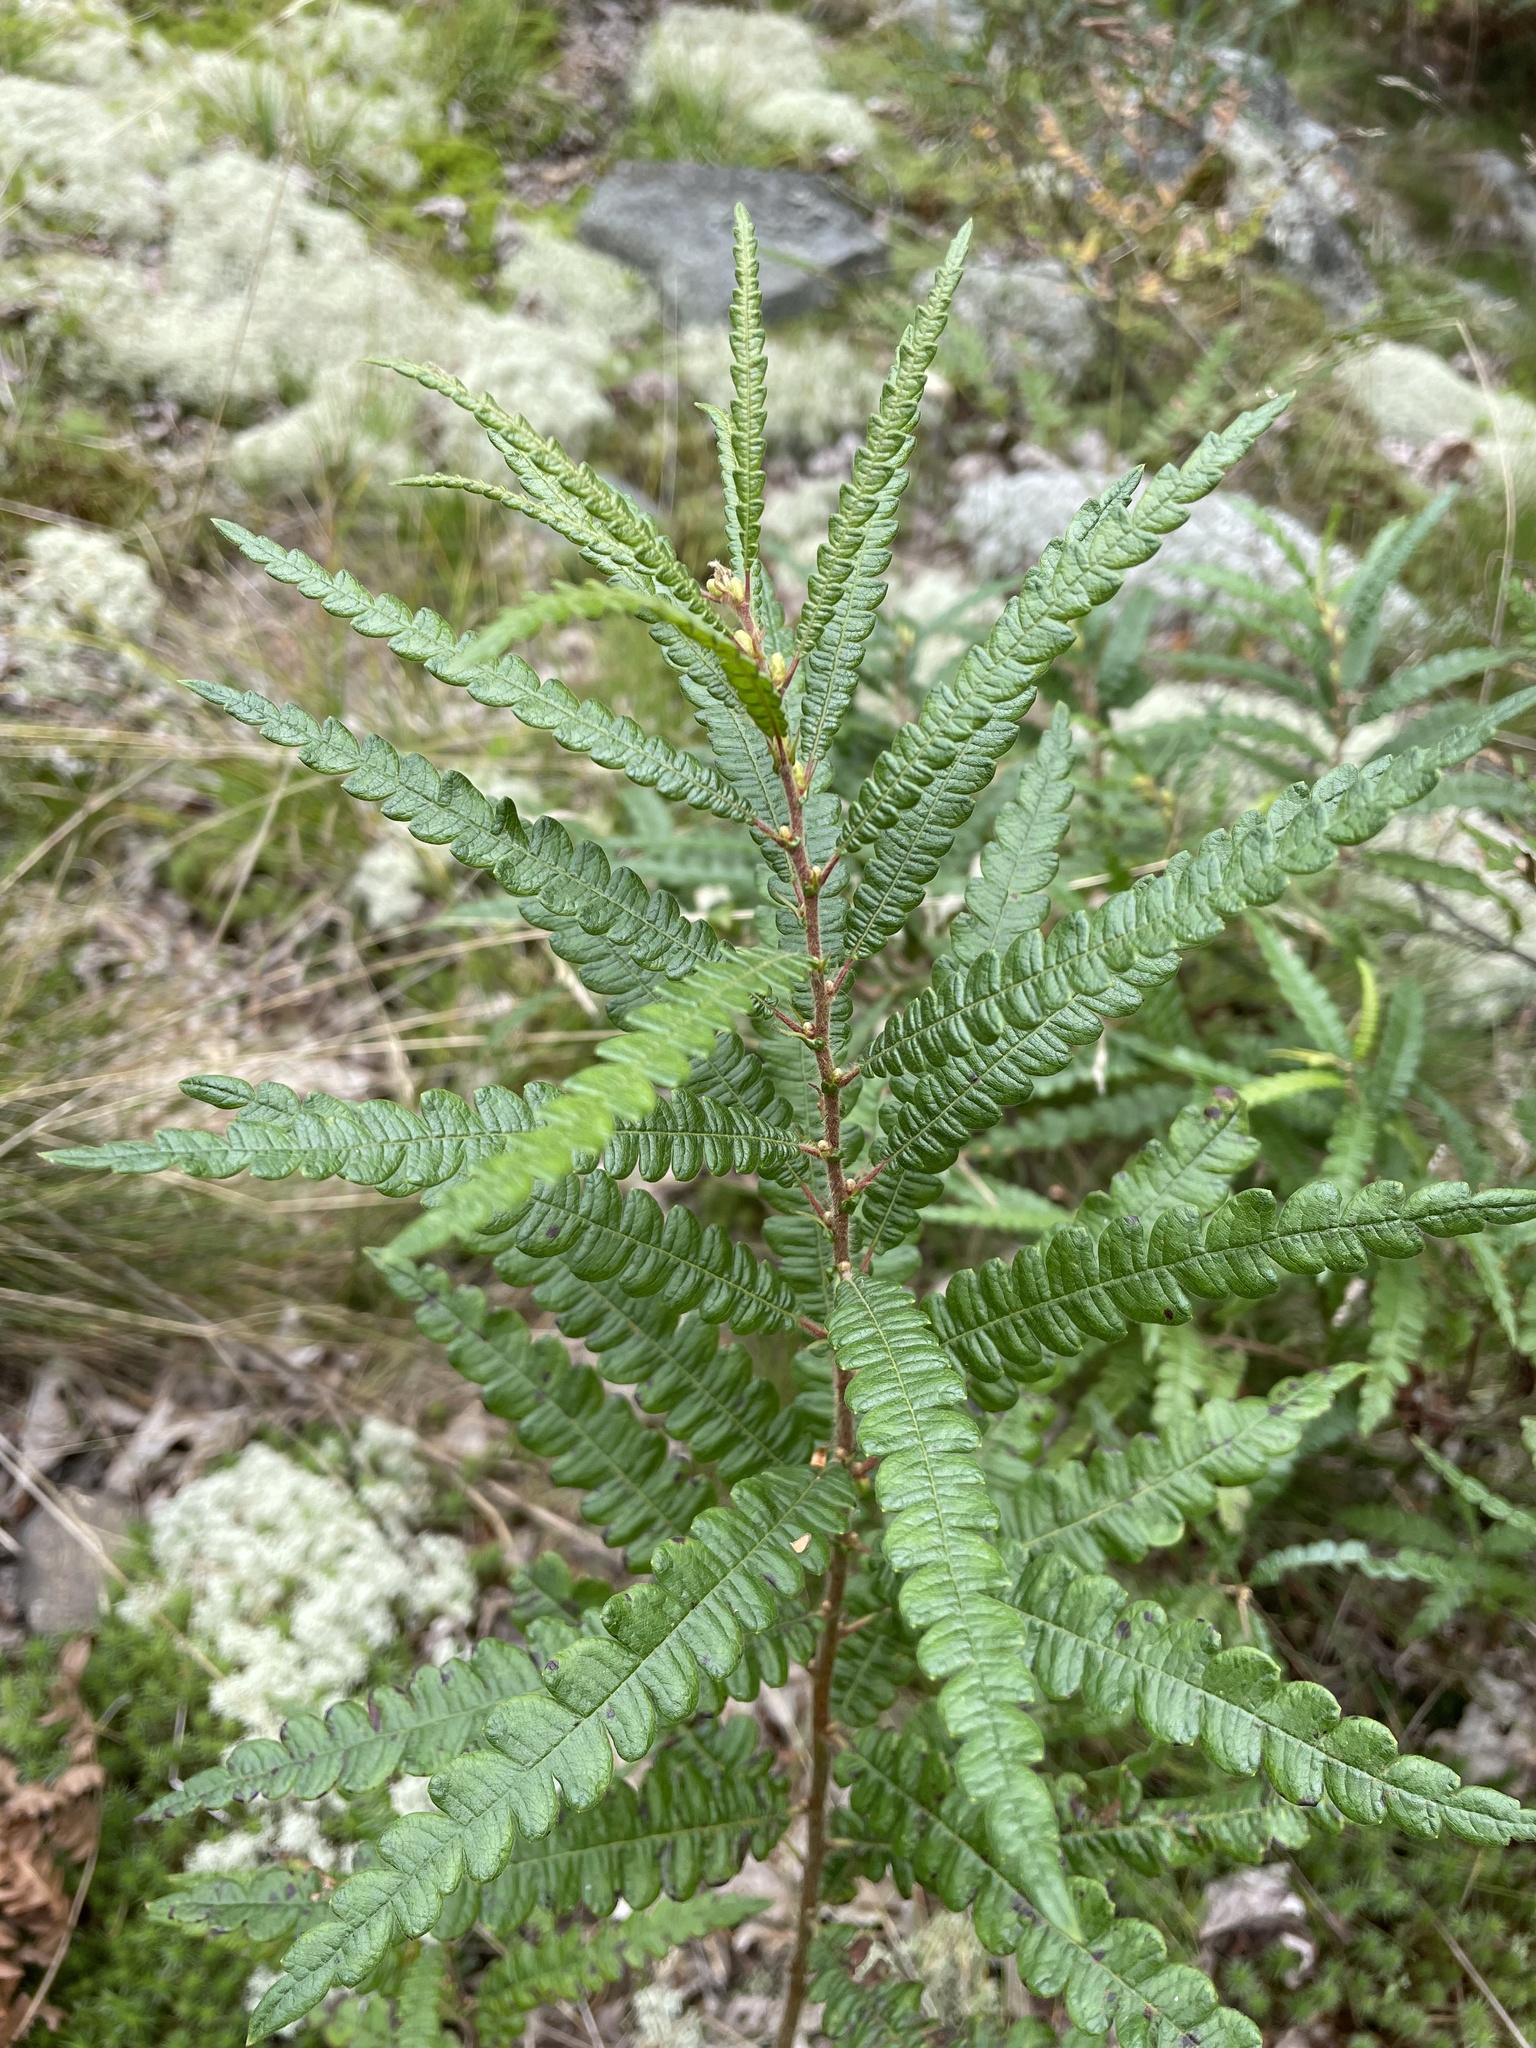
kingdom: Plantae
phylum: Tracheophyta
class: Magnoliopsida
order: Fagales
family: Myricaceae
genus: Comptonia
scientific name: Comptonia peregrina
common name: Sweet-fern
